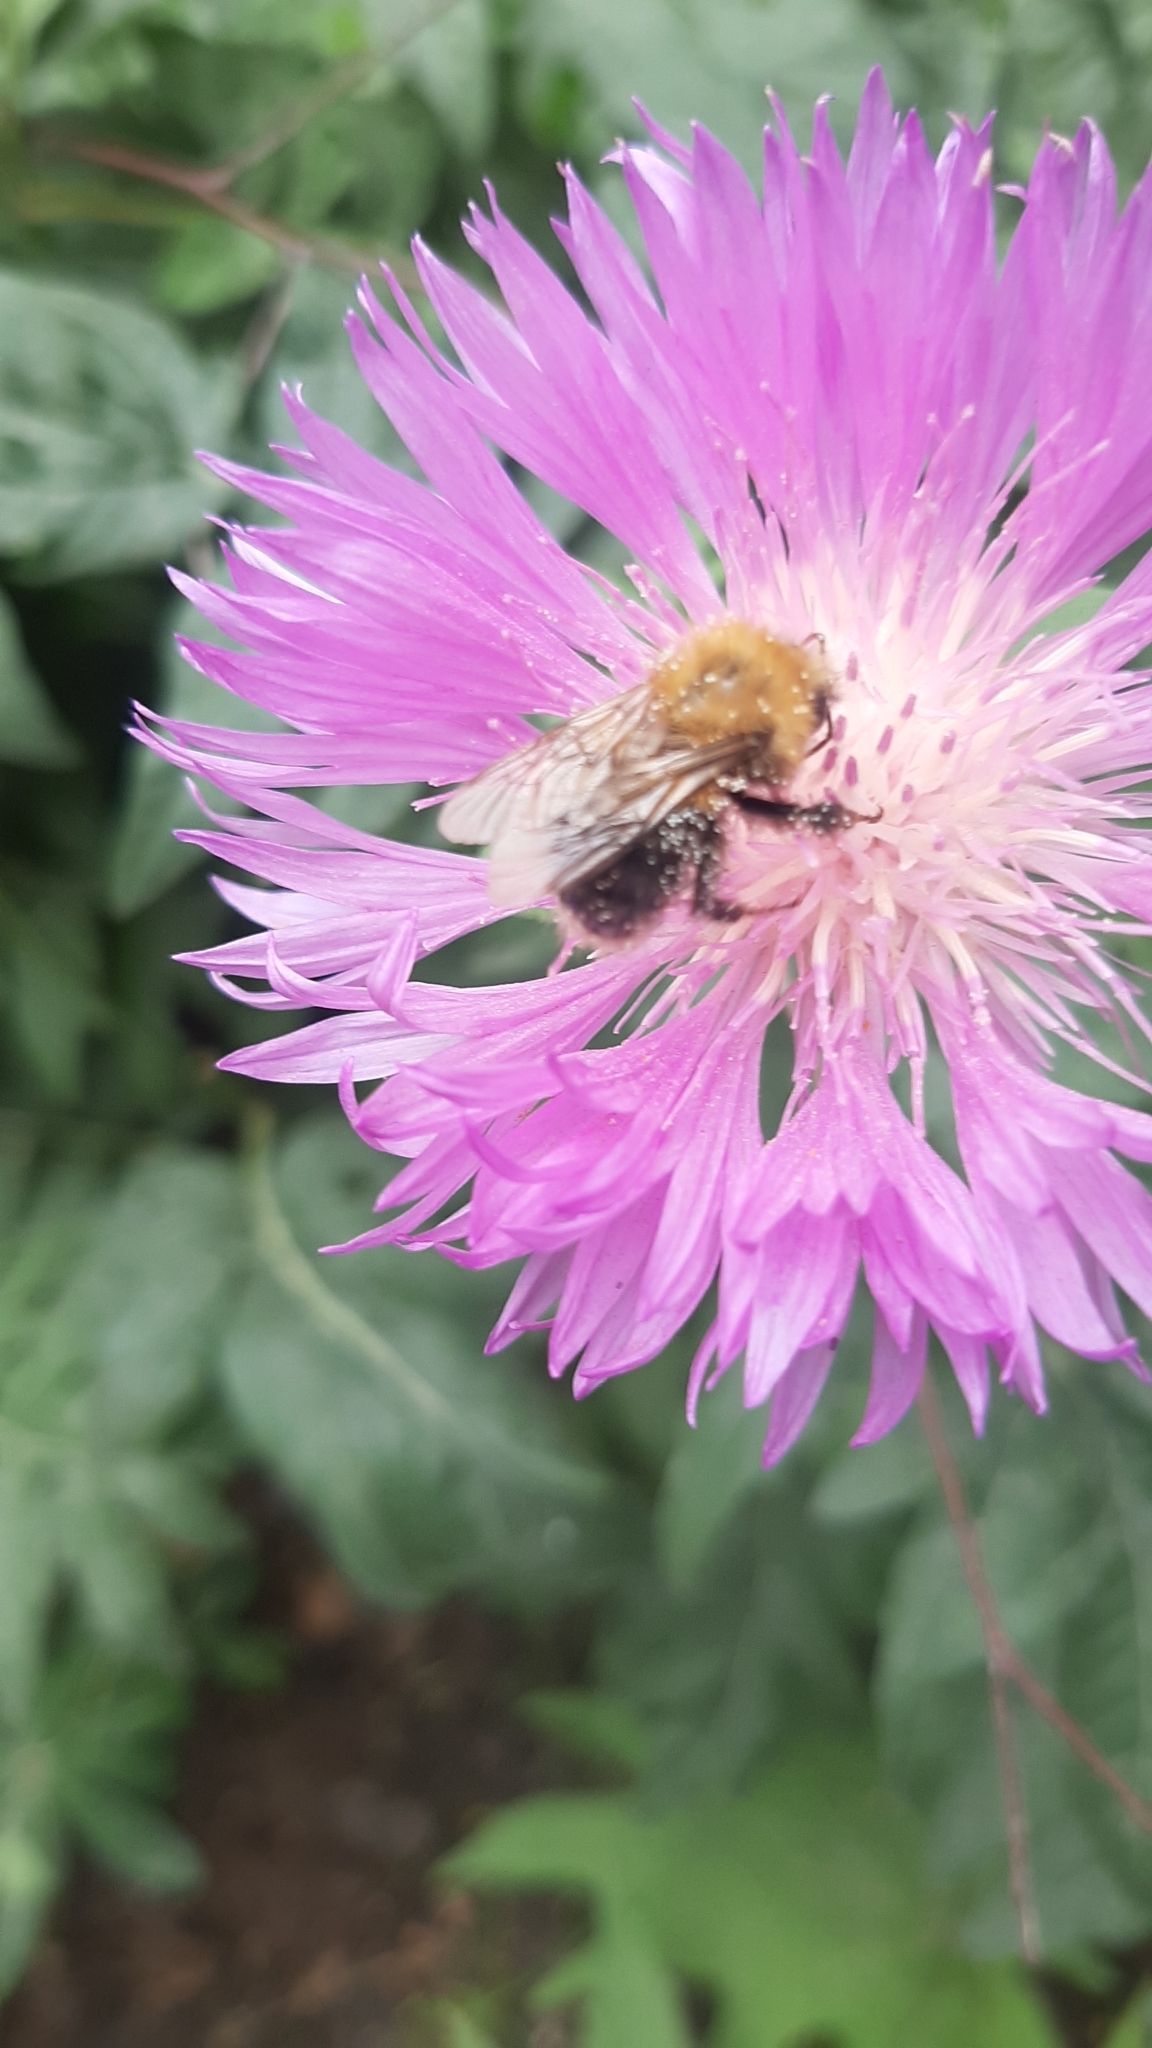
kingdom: Animalia
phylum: Arthropoda
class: Insecta
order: Hymenoptera
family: Apidae
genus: Bombus
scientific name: Bombus pascuorum
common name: Common carder bee
